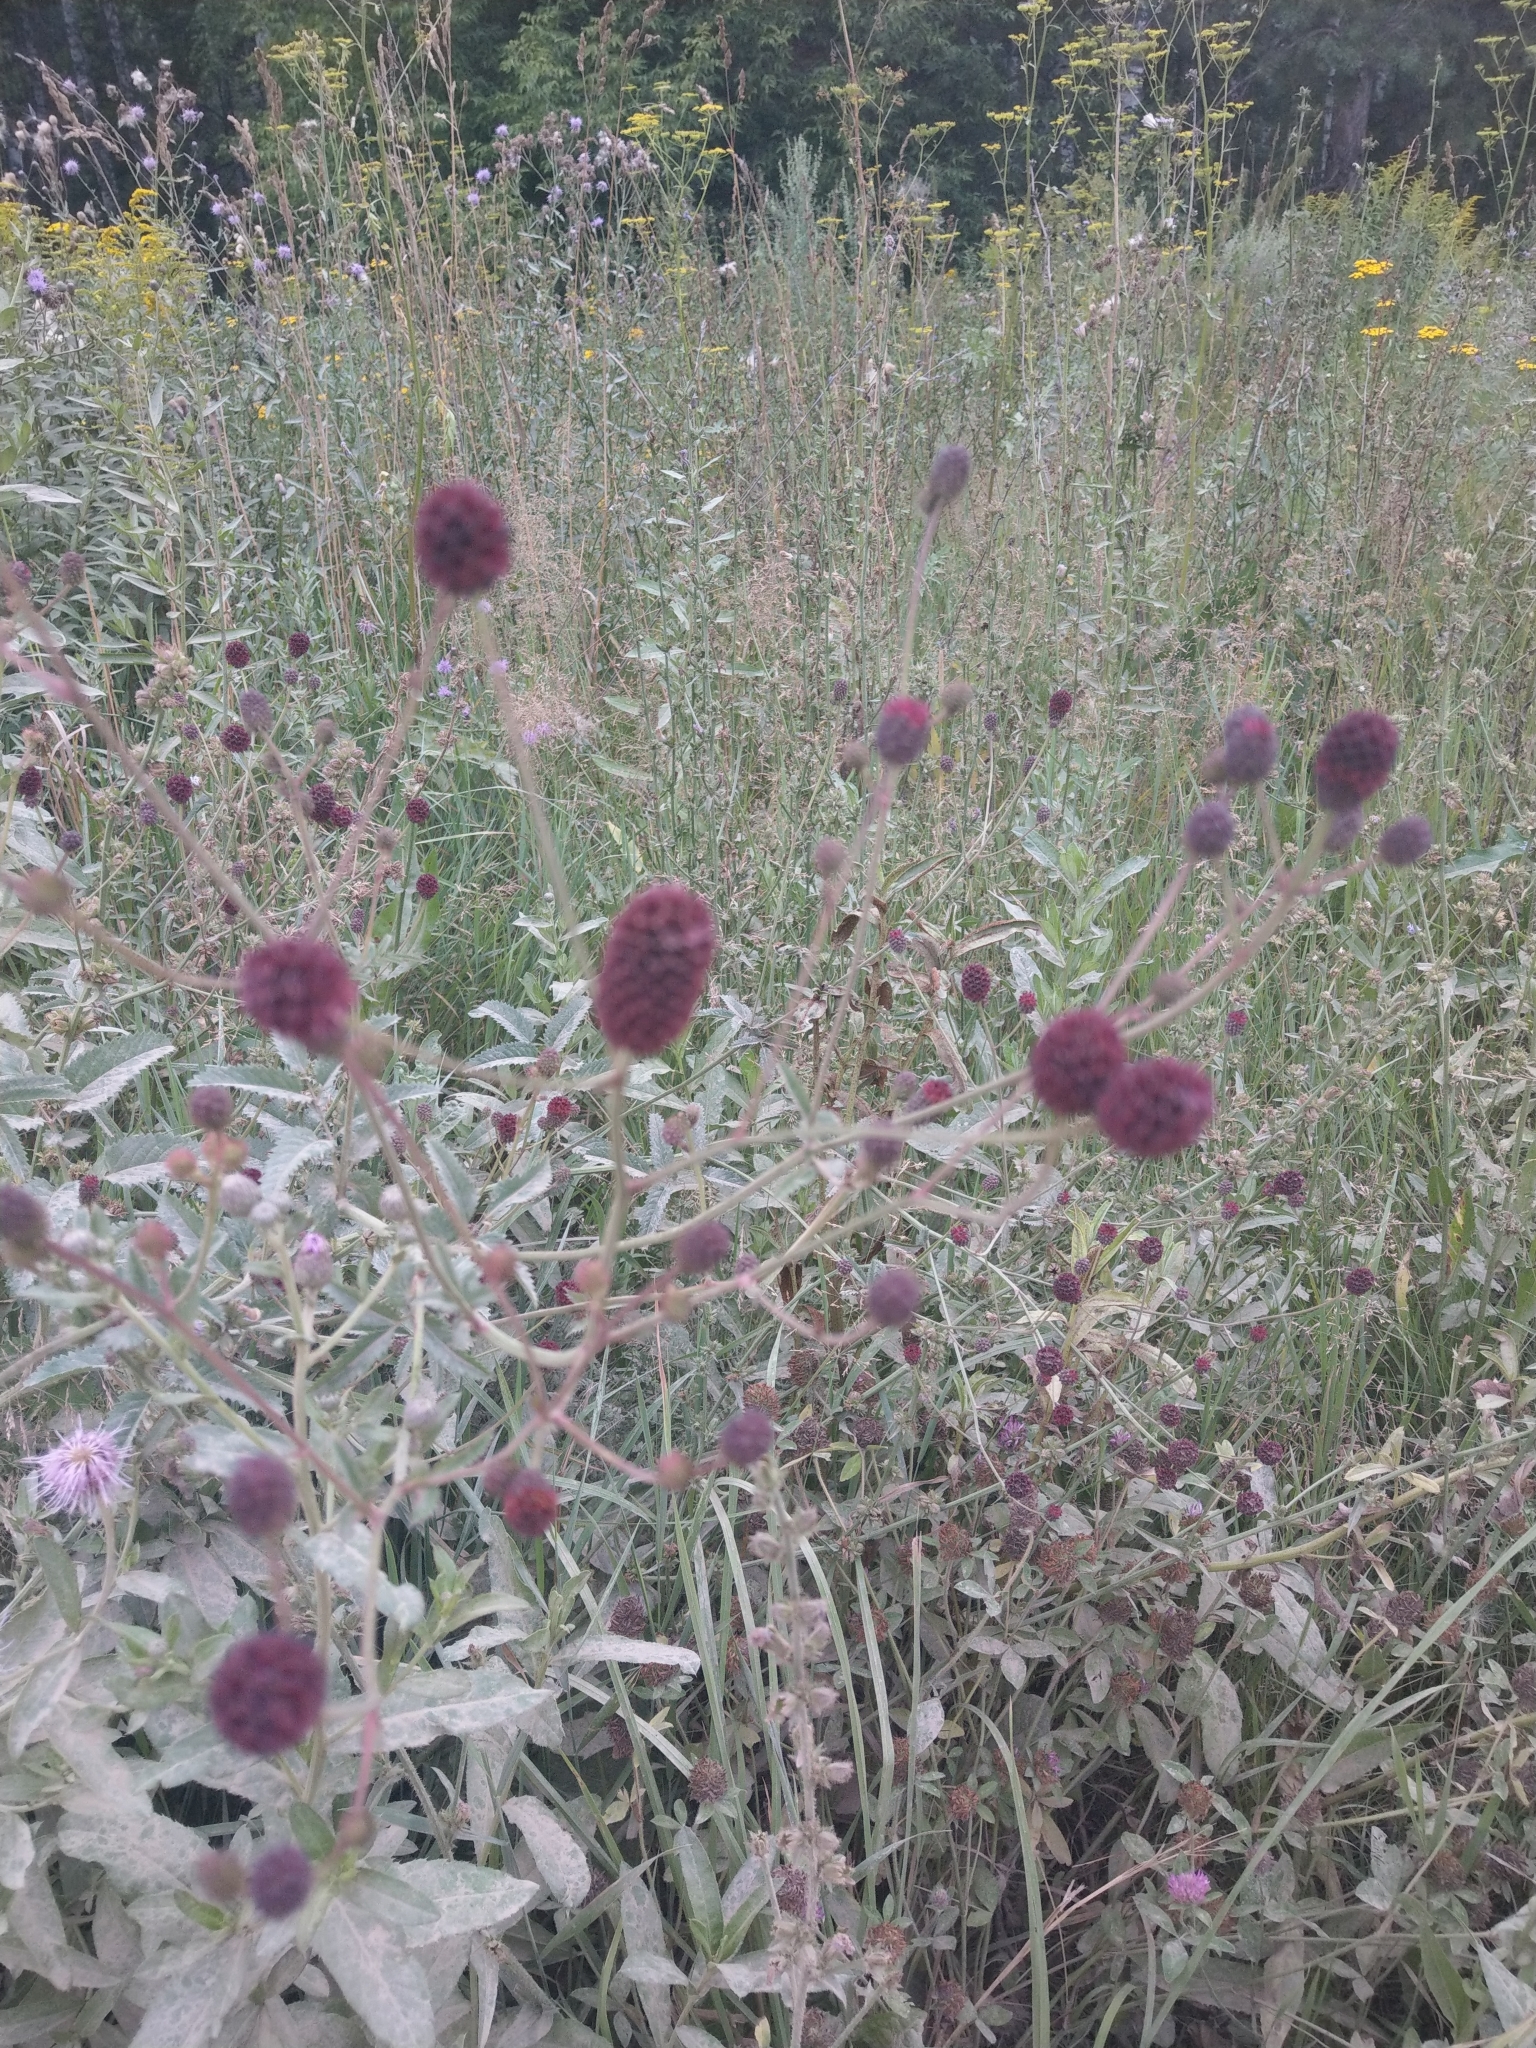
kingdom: Plantae
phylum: Tracheophyta
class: Magnoliopsida
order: Rosales
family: Rosaceae
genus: Sanguisorba
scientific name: Sanguisorba officinalis
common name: Great burnet
